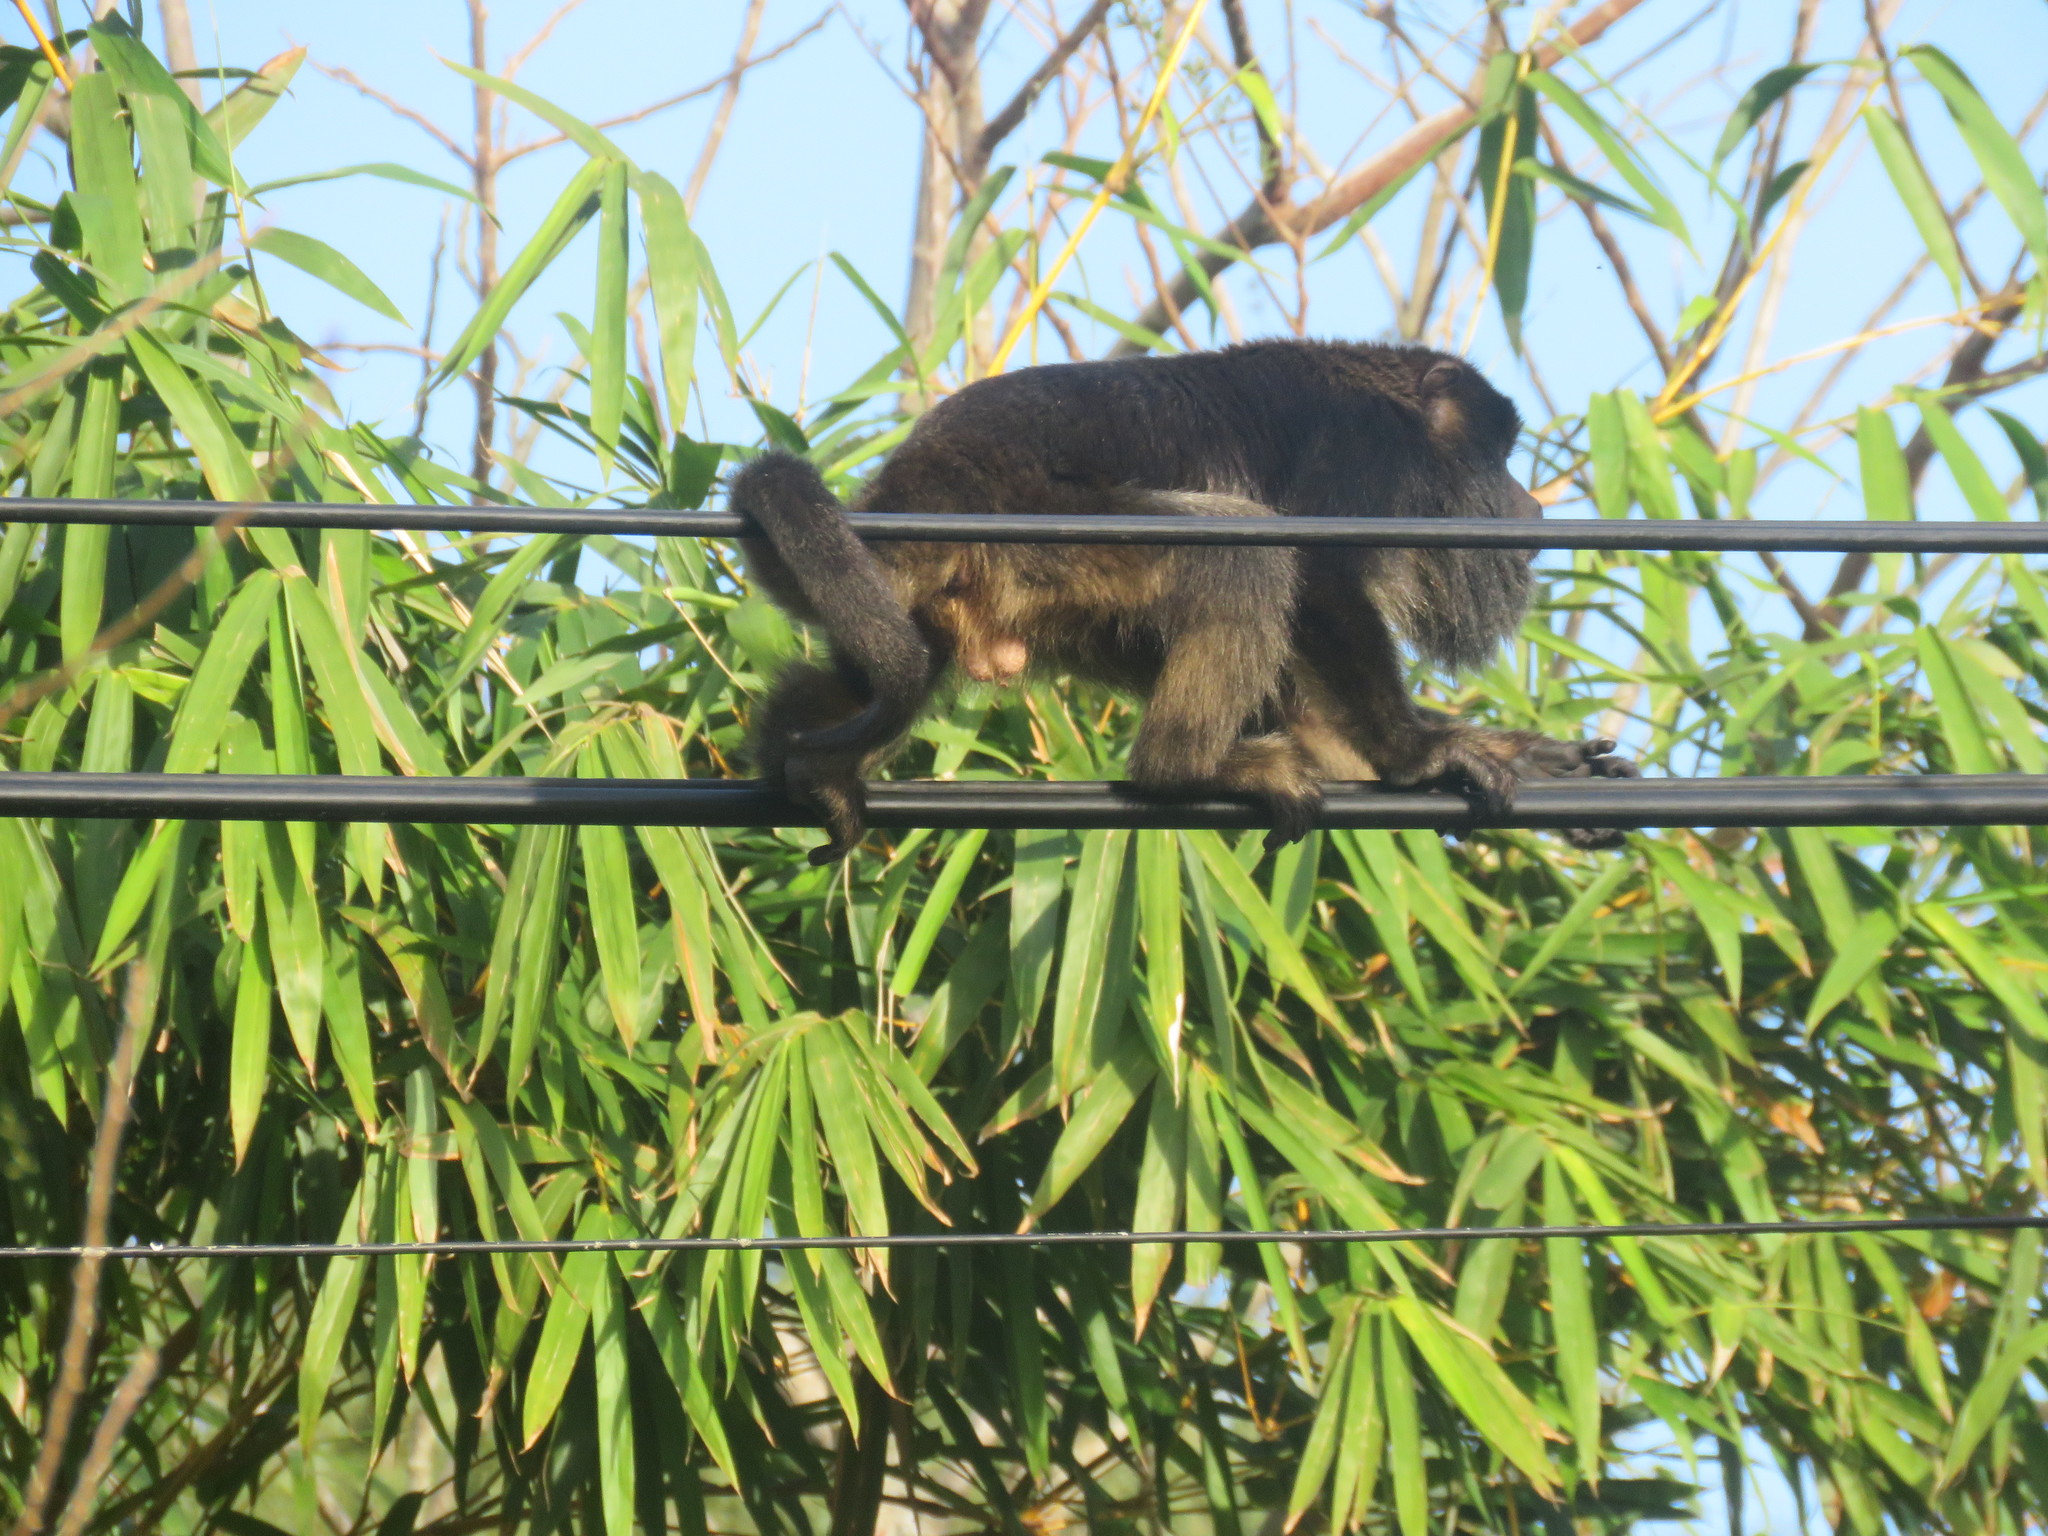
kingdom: Animalia
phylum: Chordata
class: Mammalia
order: Primates
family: Atelidae
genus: Alouatta
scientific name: Alouatta caraya
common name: Black howler
